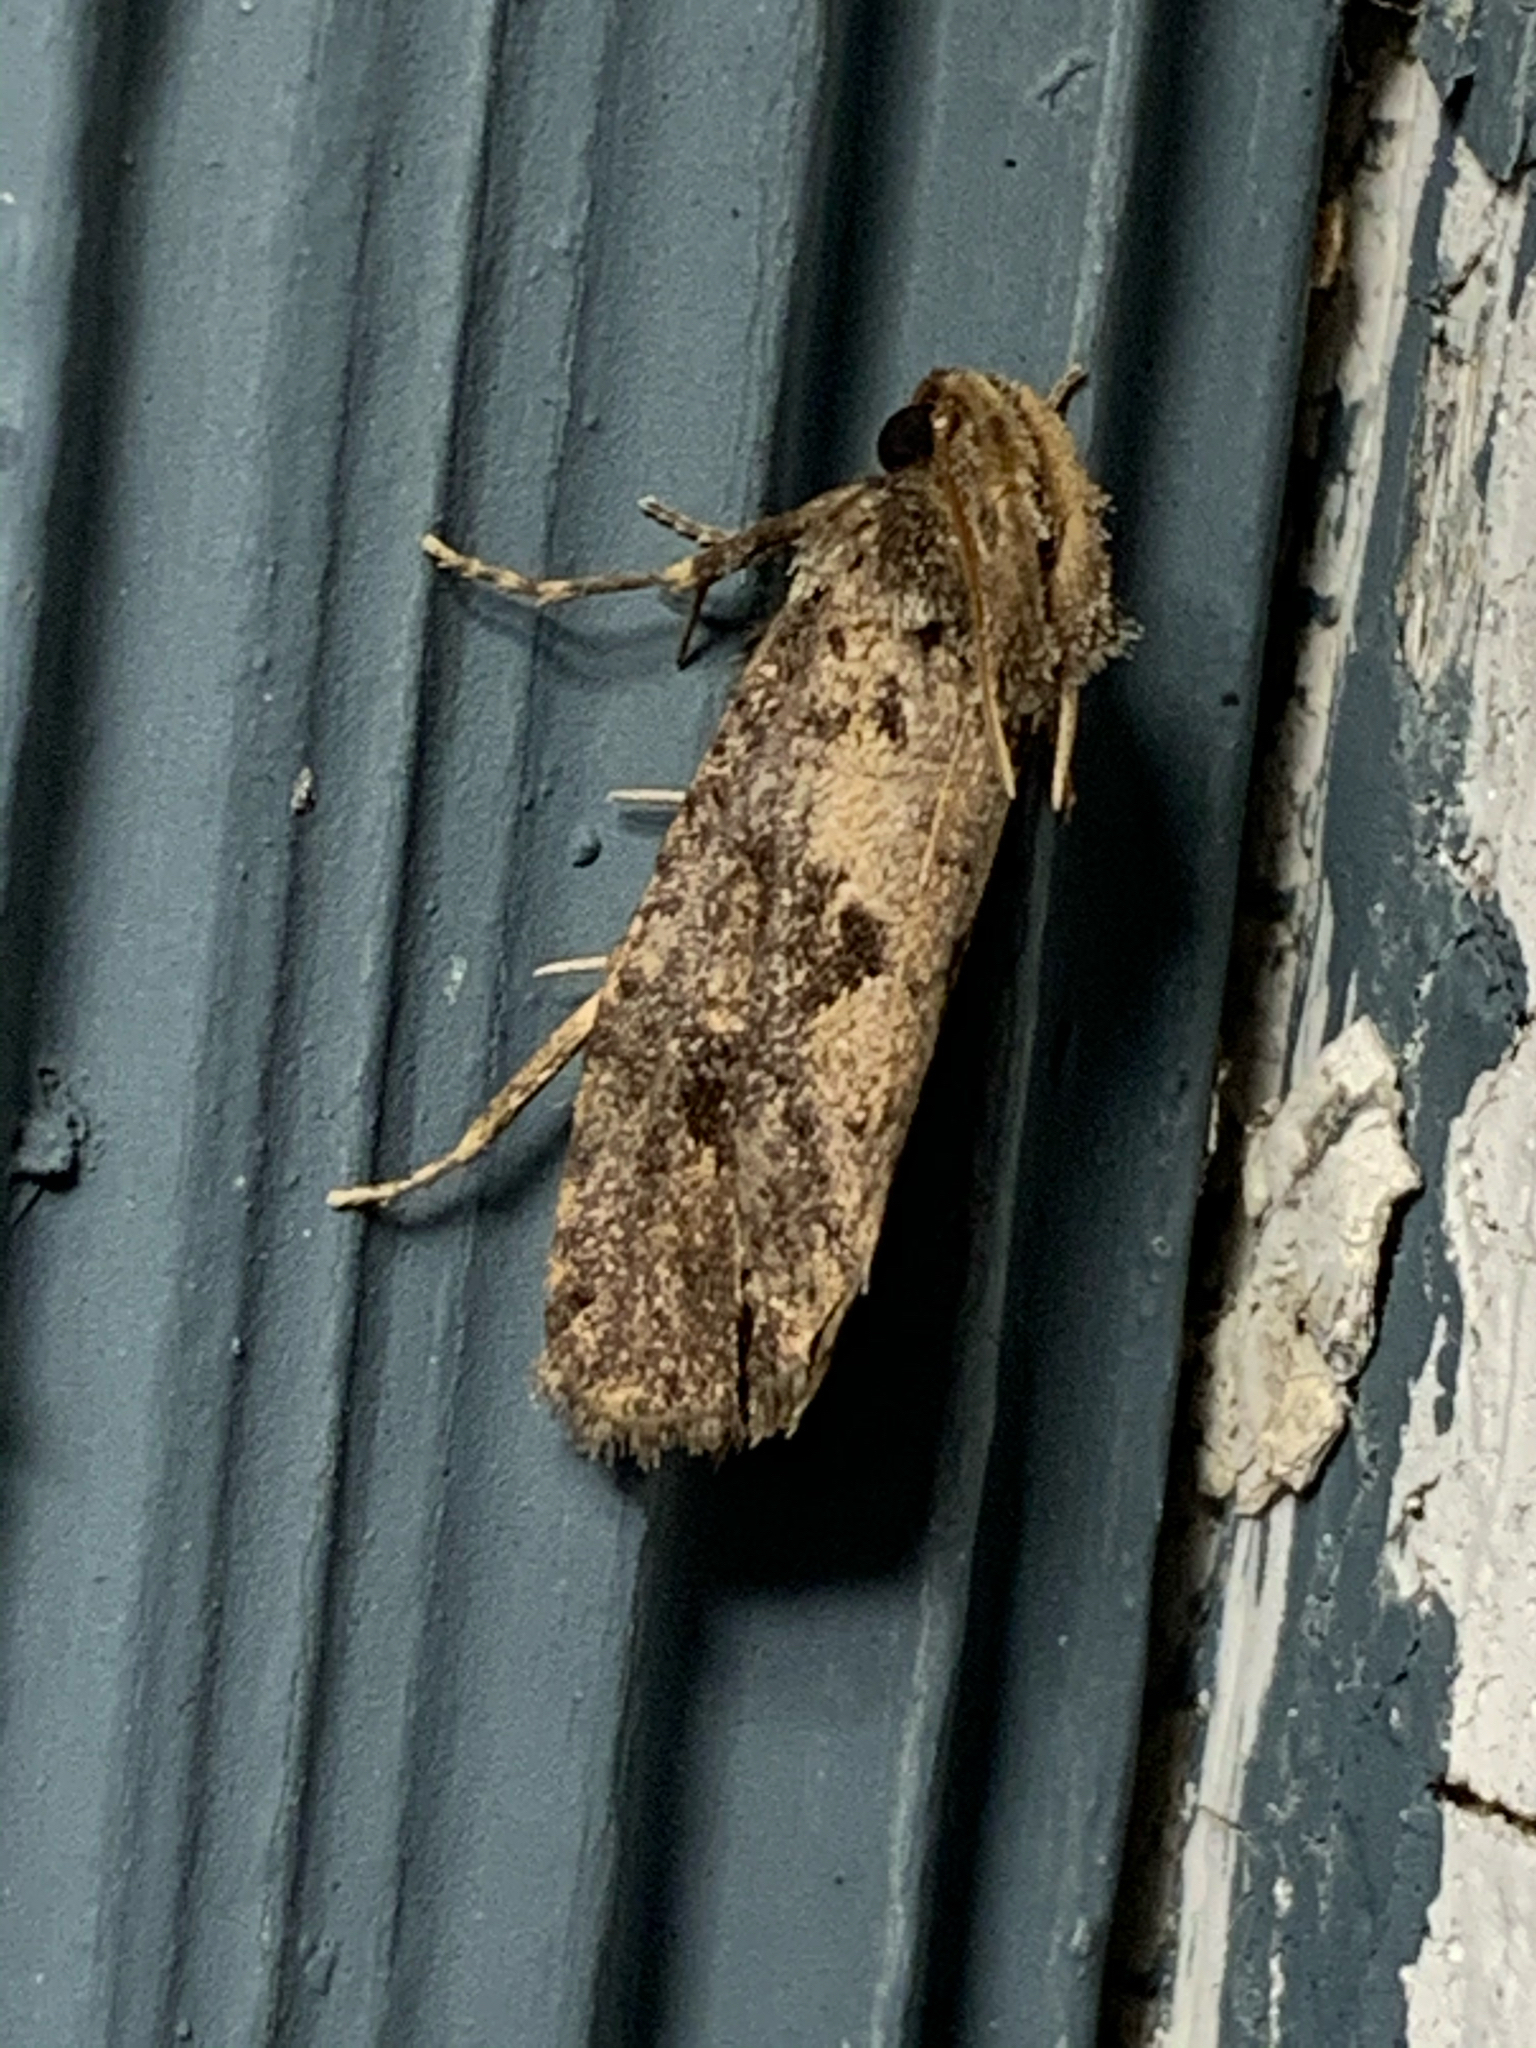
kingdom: Animalia
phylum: Arthropoda
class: Insecta
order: Lepidoptera
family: Tineidae
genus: Acrolophus
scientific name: Acrolophus popeanella
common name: Clemens' grass tubeworm moth
